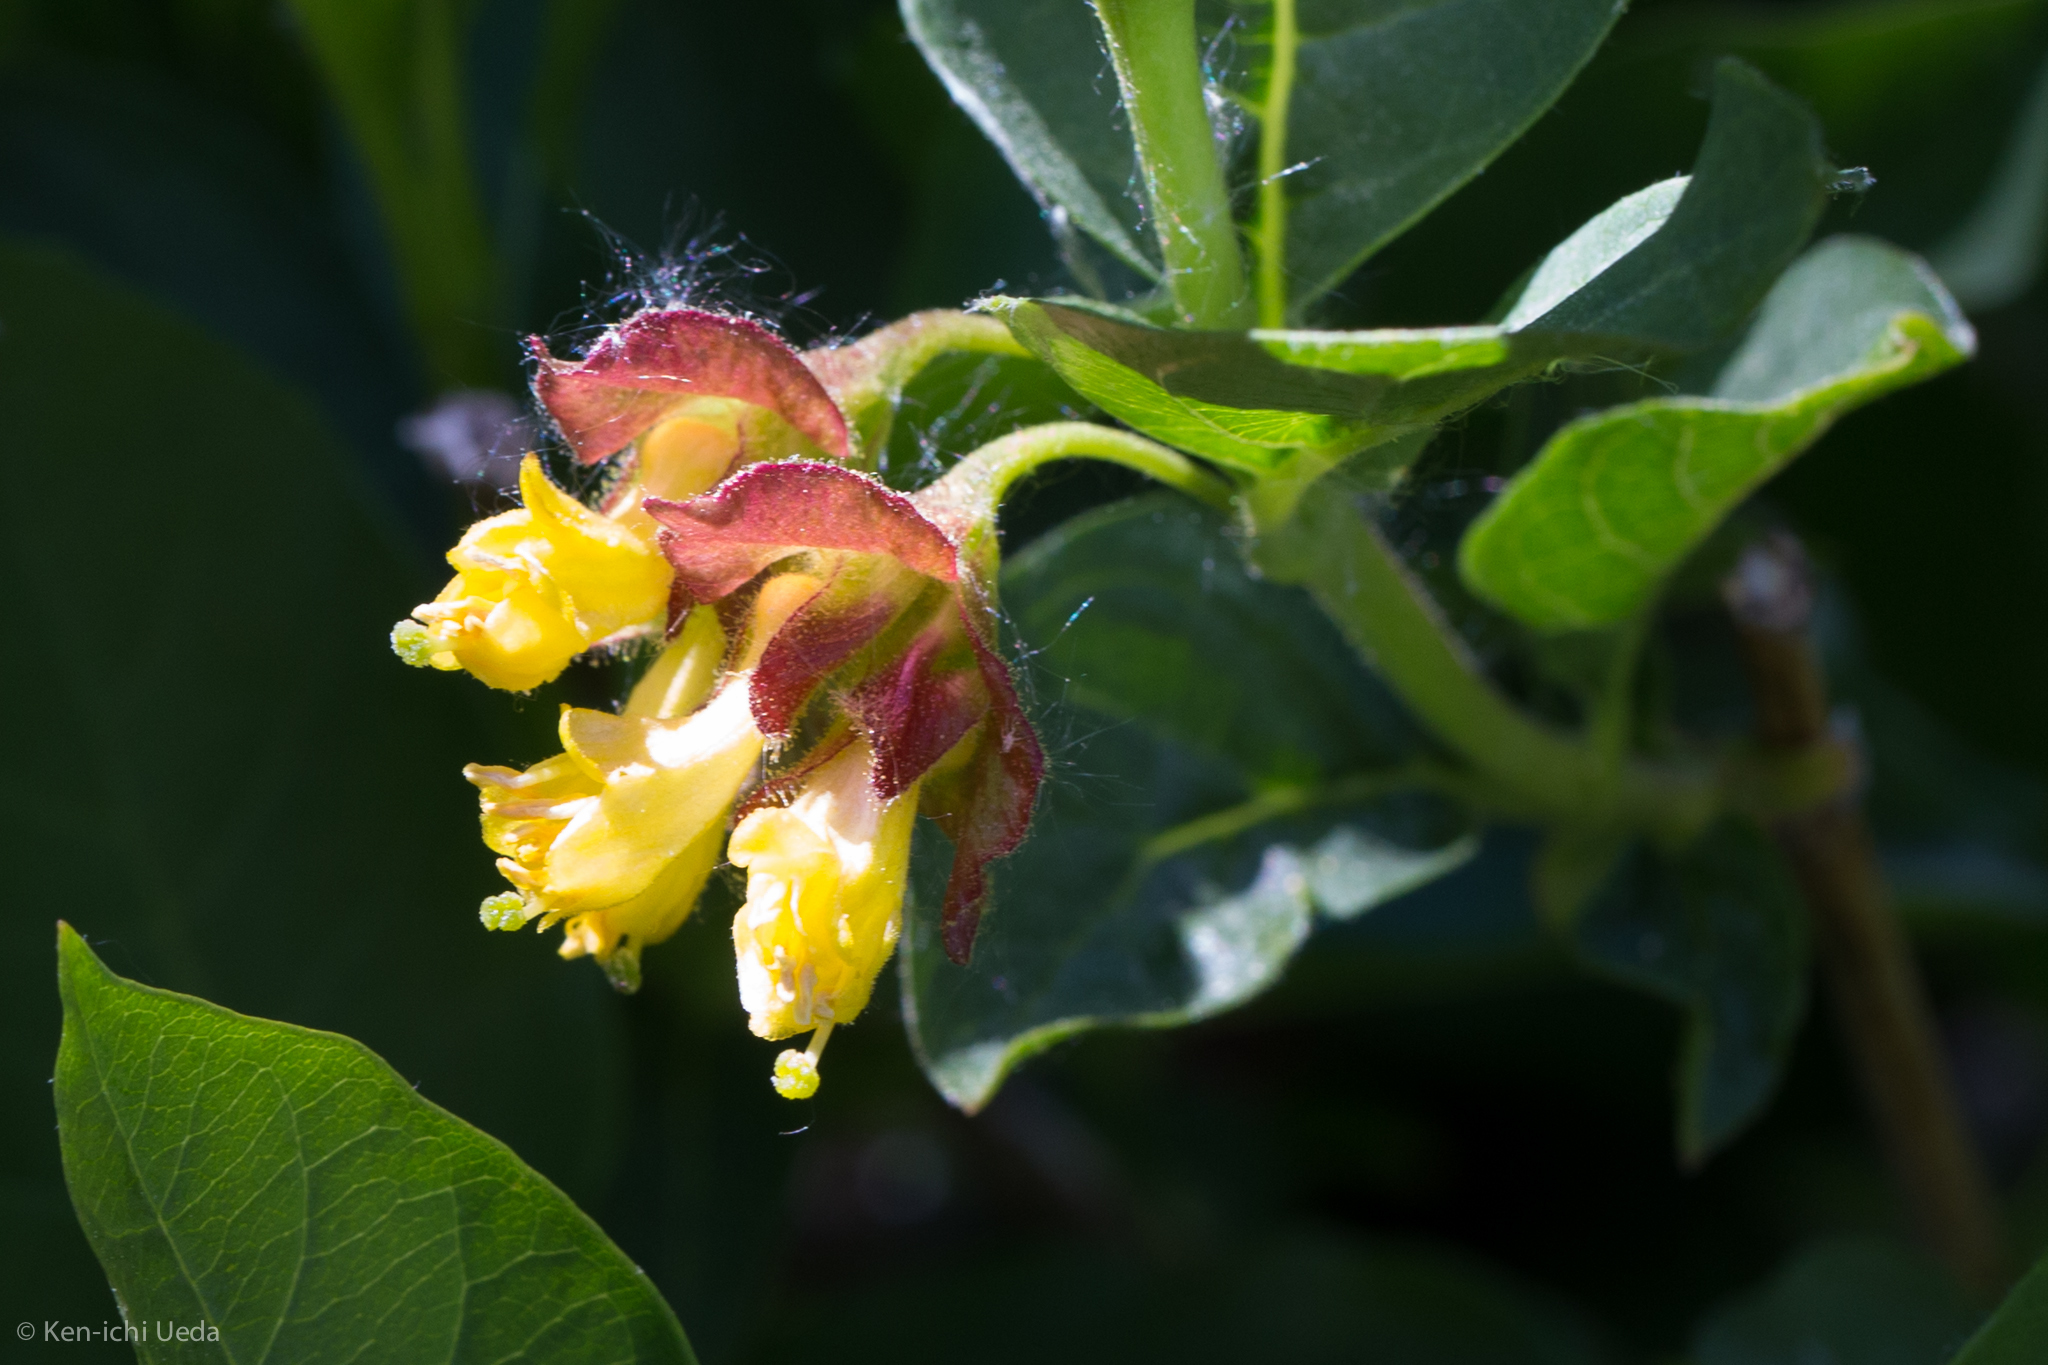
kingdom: Plantae
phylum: Tracheophyta
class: Magnoliopsida
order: Dipsacales
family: Caprifoliaceae
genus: Lonicera
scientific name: Lonicera involucrata
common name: Californian honeysuckle
